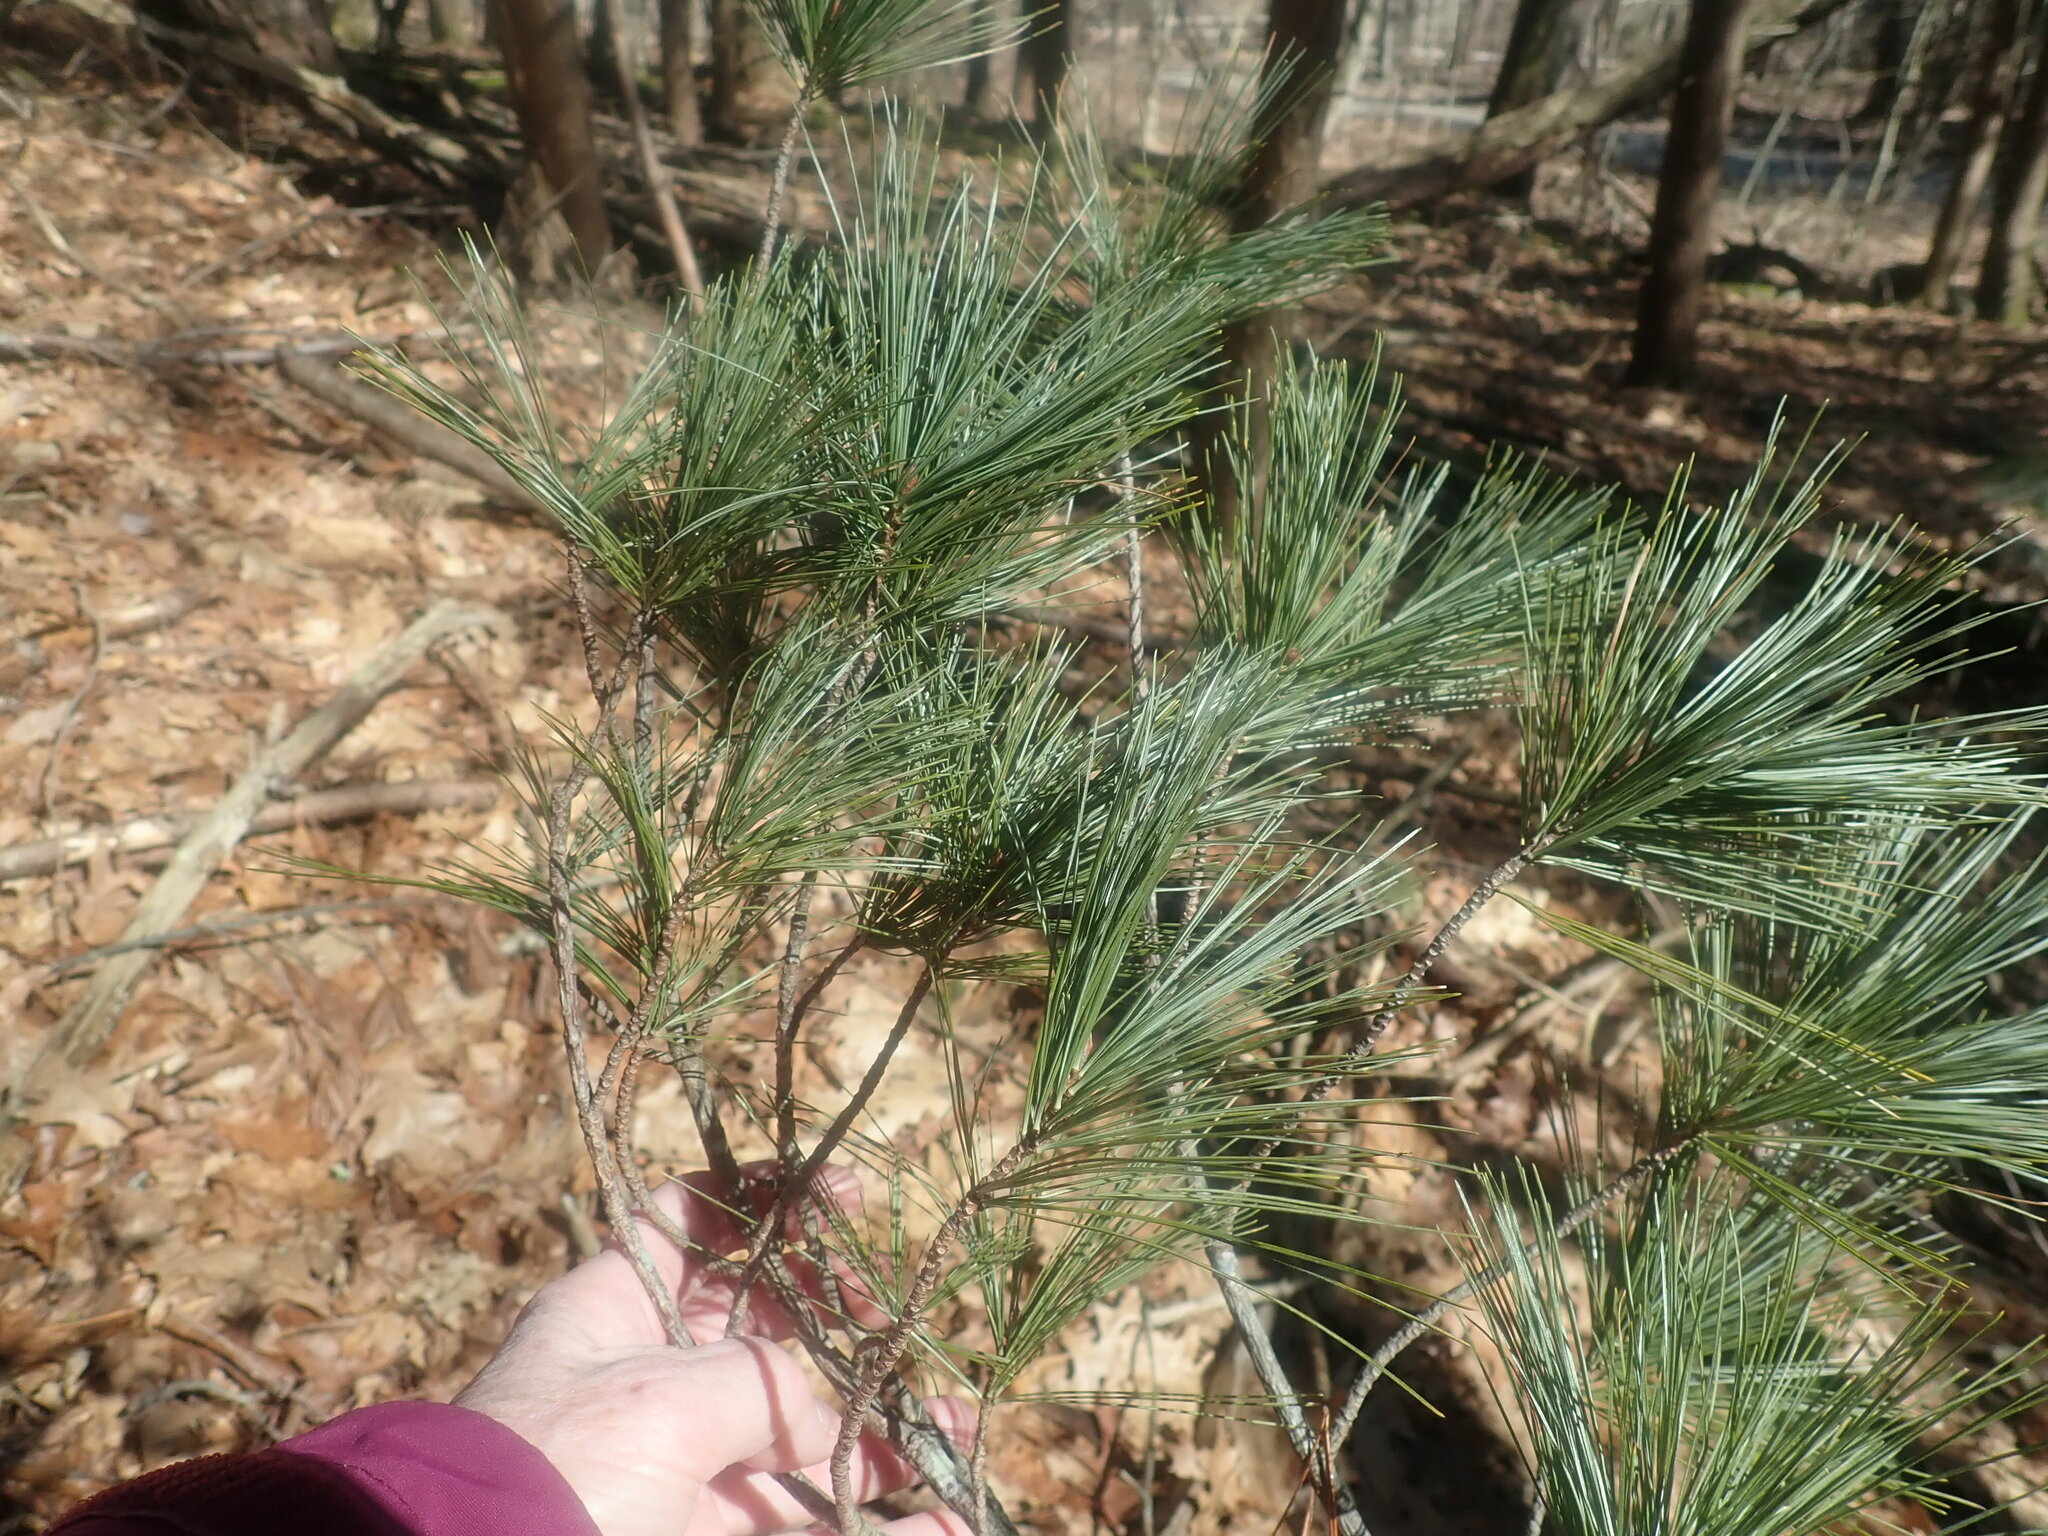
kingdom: Plantae
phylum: Tracheophyta
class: Pinopsida
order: Pinales
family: Pinaceae
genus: Pinus
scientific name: Pinus strobus
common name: Weymouth pine
